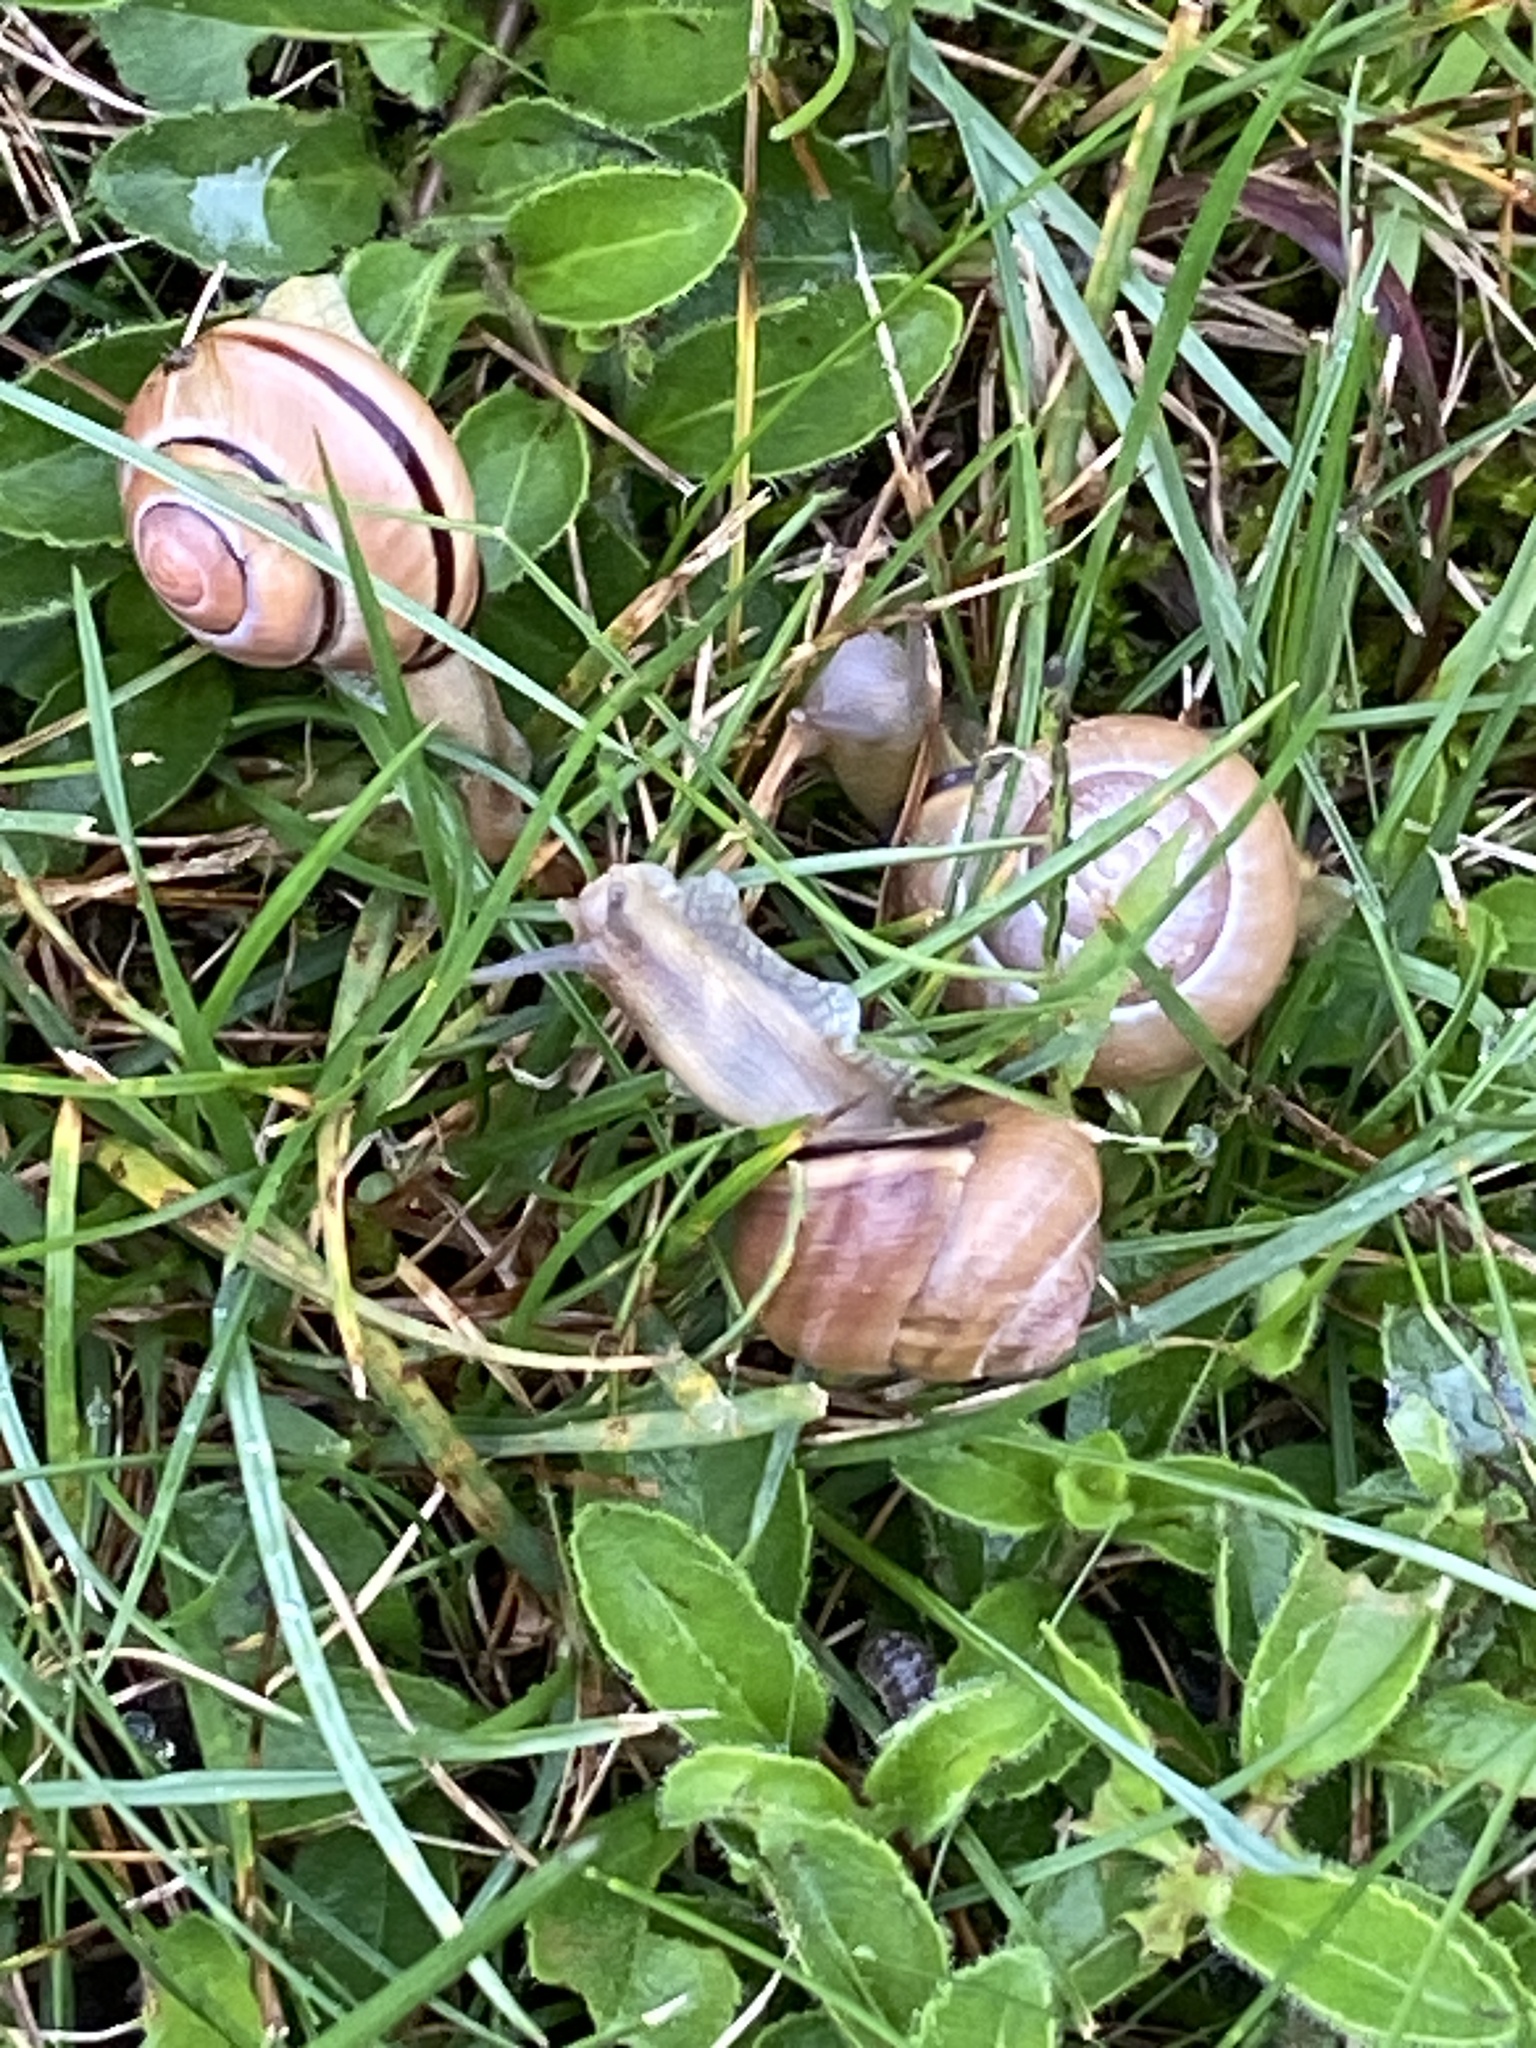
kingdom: Animalia
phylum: Mollusca
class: Gastropoda
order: Stylommatophora
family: Helicidae
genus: Cepaea
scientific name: Cepaea nemoralis
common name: Grovesnail
